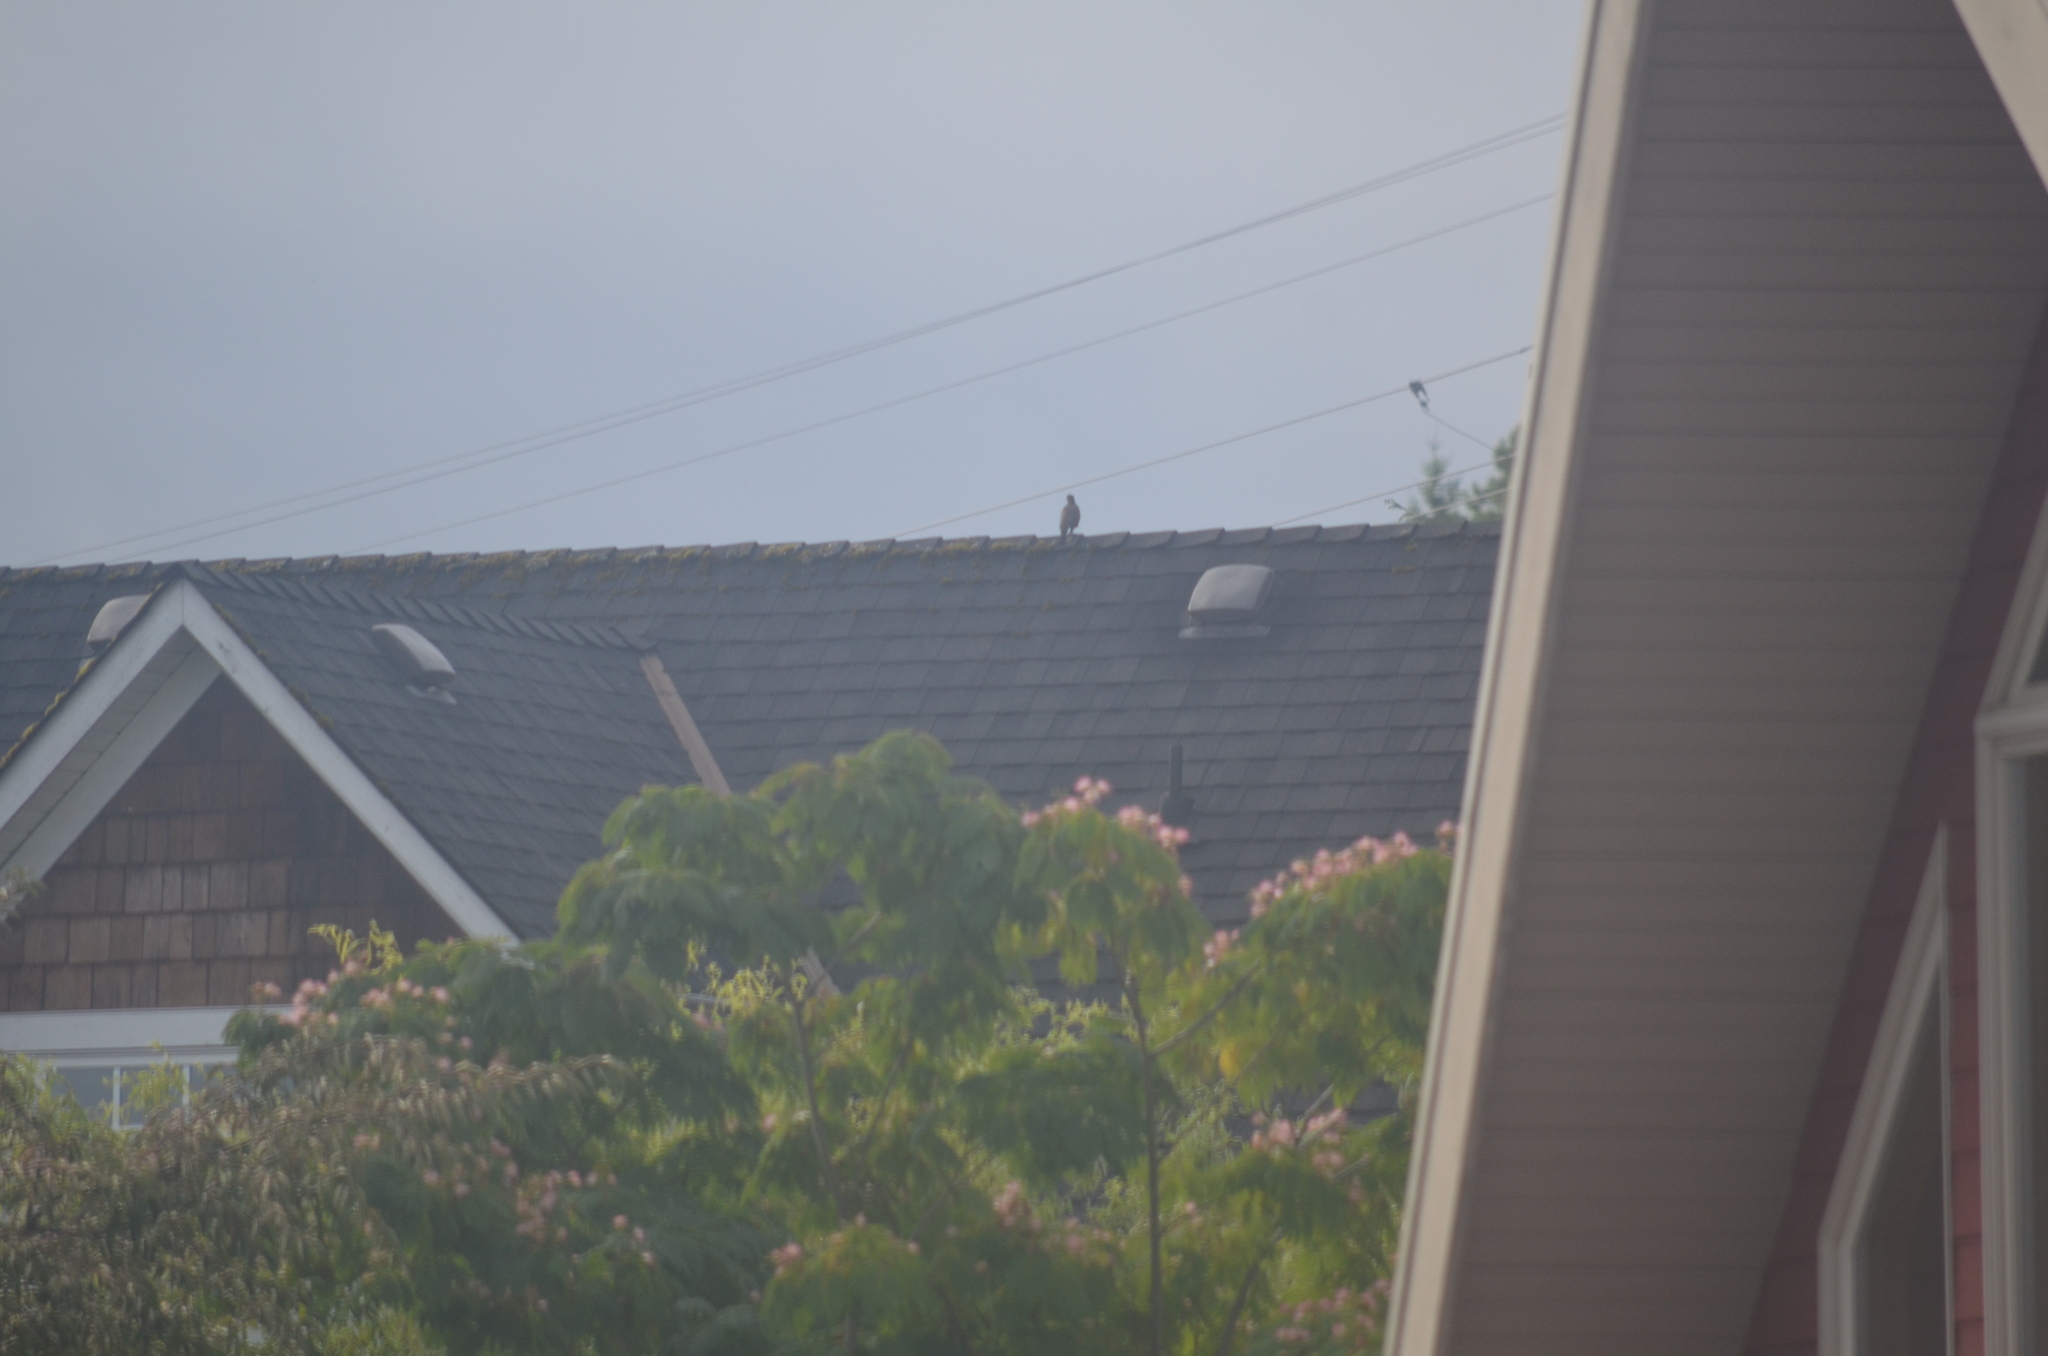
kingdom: Animalia
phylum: Chordata
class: Aves
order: Passeriformes
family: Turdidae
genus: Turdus
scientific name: Turdus migratorius
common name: American robin
